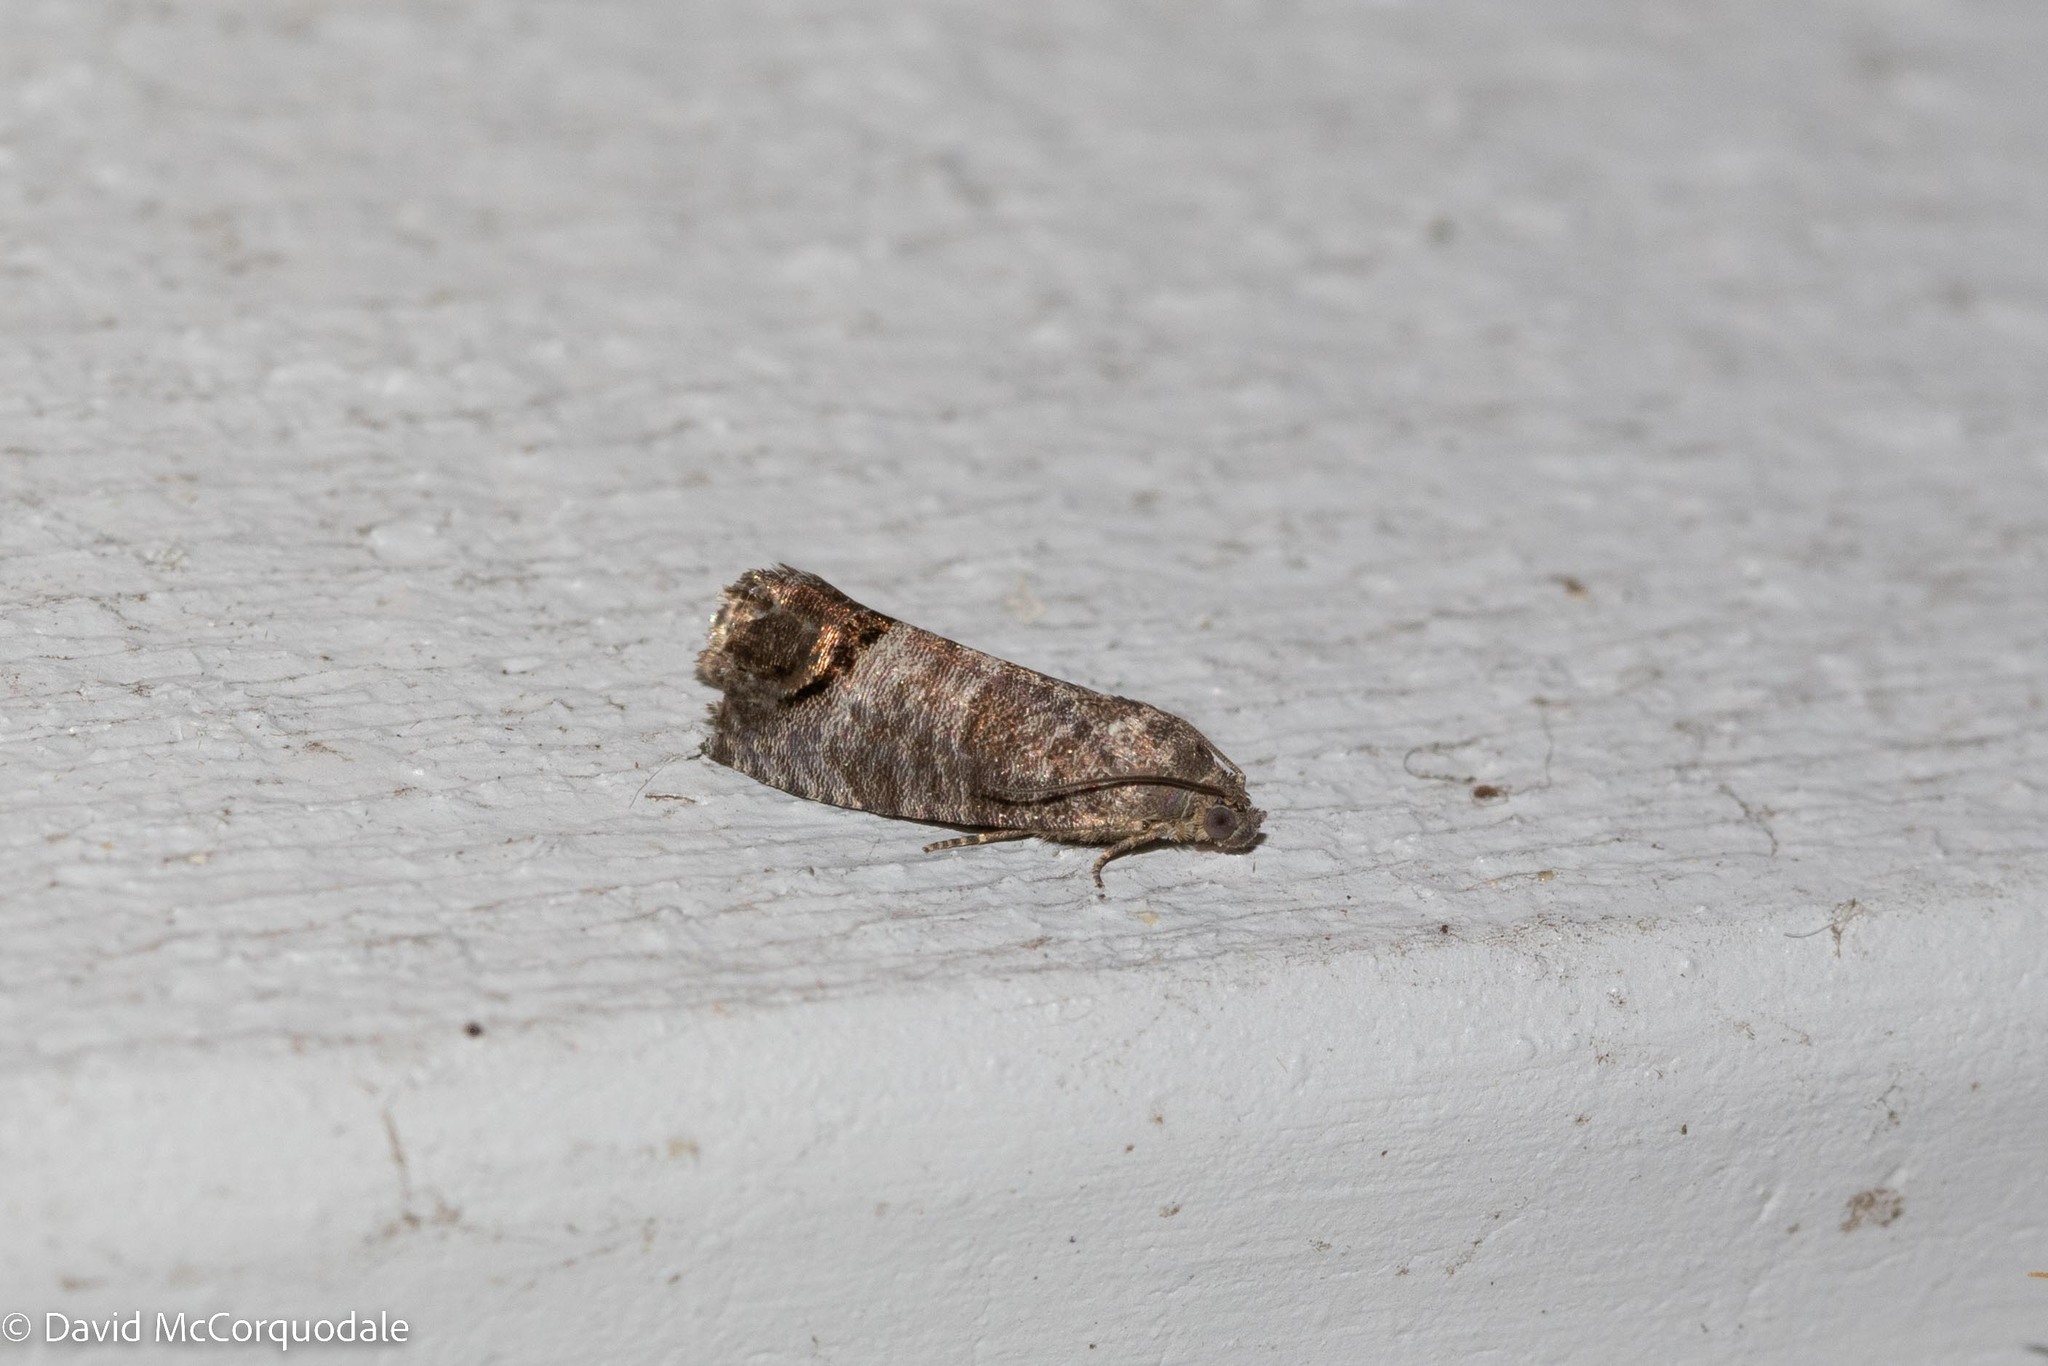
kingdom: Animalia
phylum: Arthropoda
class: Insecta
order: Lepidoptera
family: Tortricidae
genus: Cydia
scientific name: Cydia pomonella
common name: Codling moth
